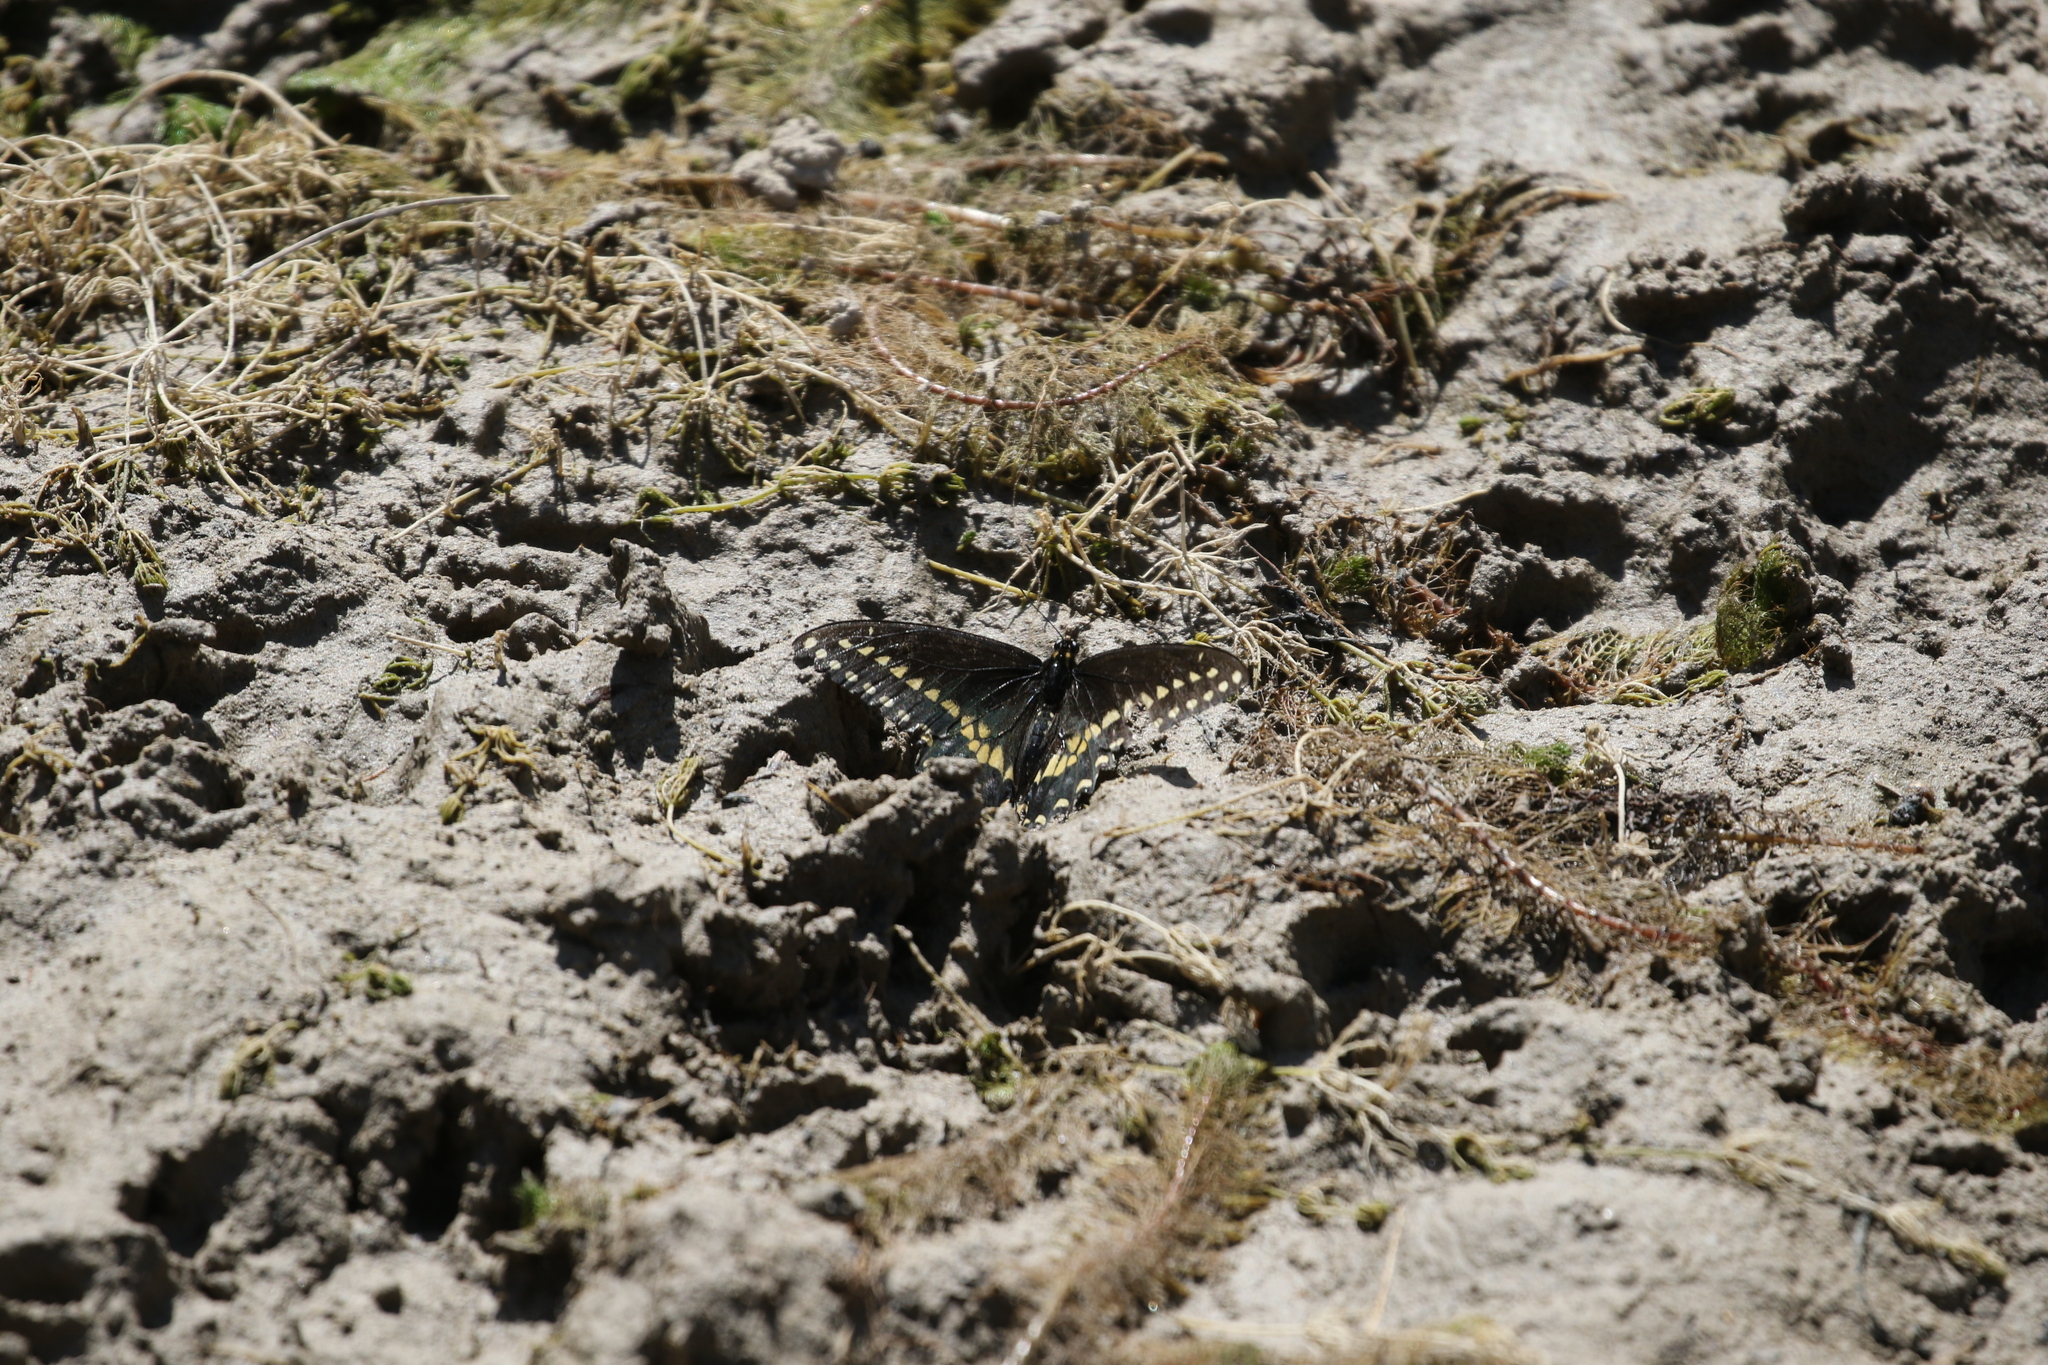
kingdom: Animalia
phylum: Arthropoda
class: Insecta
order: Lepidoptera
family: Papilionidae
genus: Papilio
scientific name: Papilio polyxenes
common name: Black swallowtail
